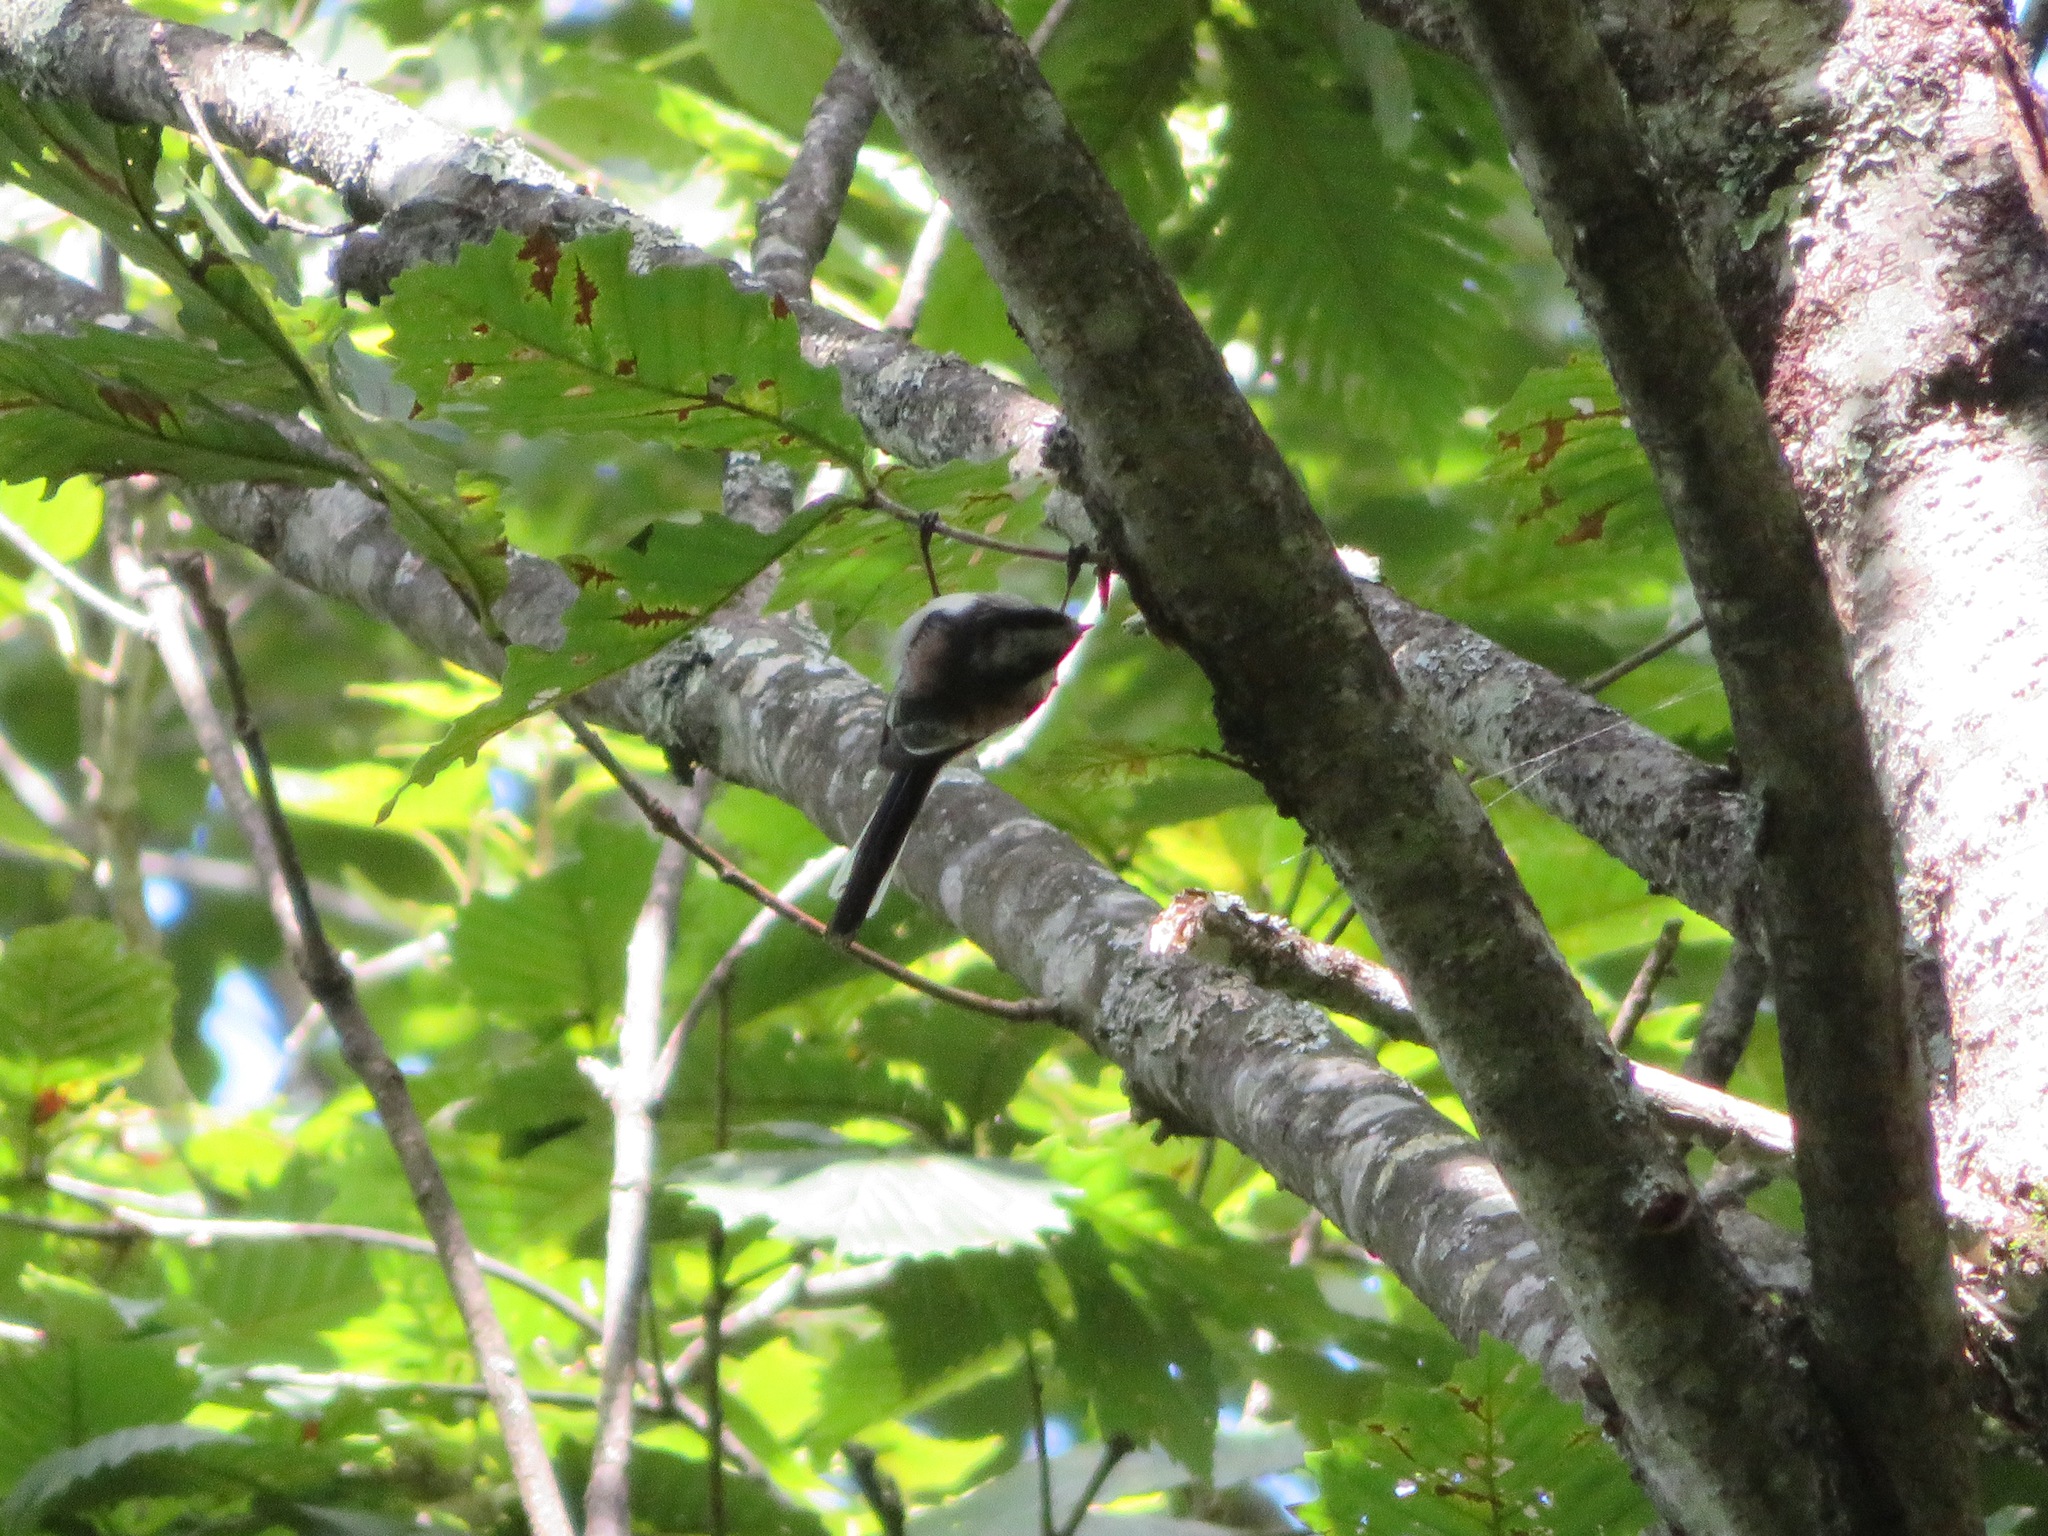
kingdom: Animalia
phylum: Chordata
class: Aves
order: Passeriformes
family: Aegithalidae
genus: Aegithalos
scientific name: Aegithalos caudatus
